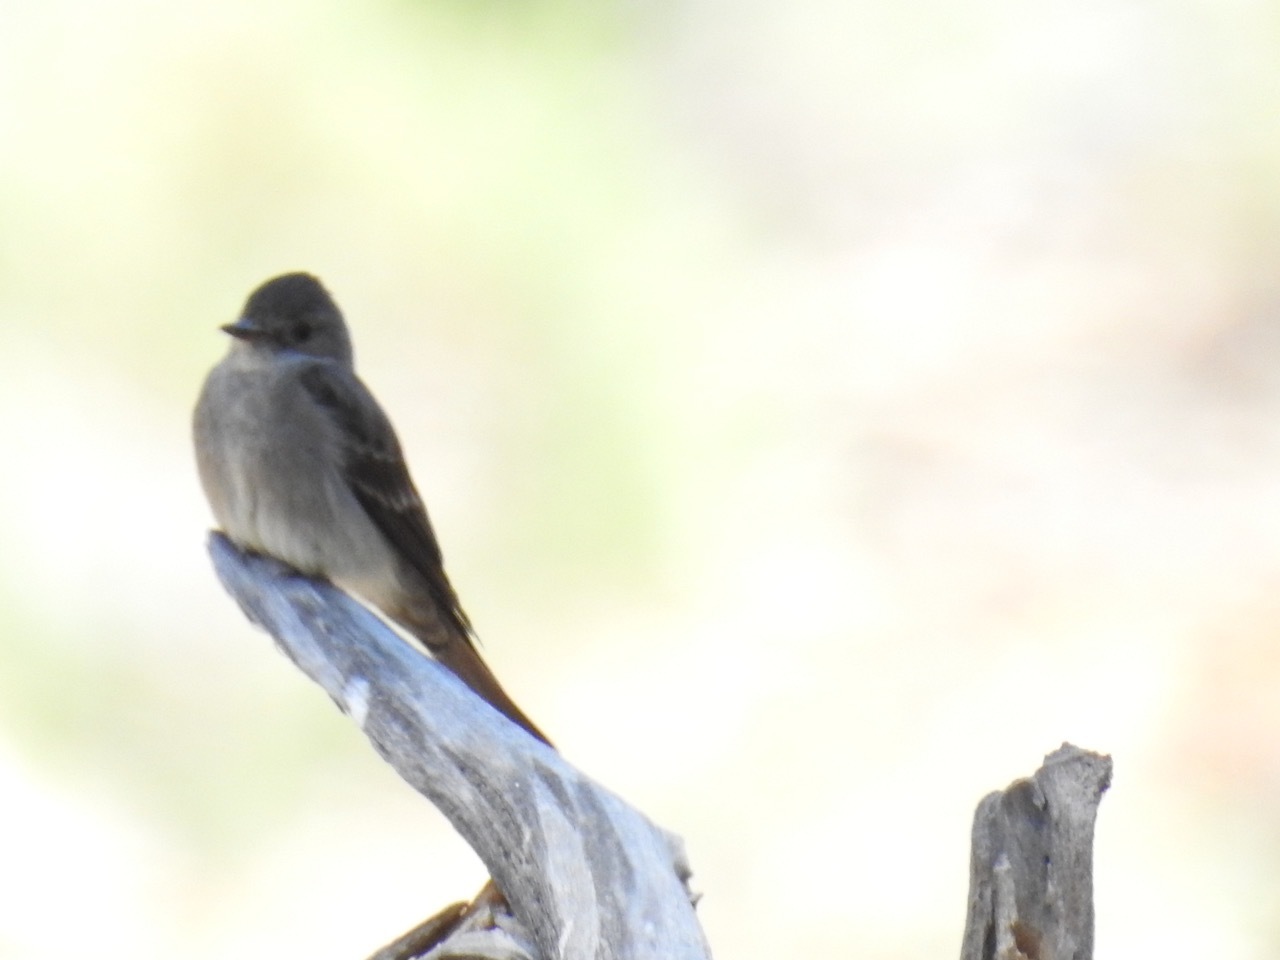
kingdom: Animalia
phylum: Chordata
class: Aves
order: Passeriformes
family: Tyrannidae
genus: Contopus
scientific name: Contopus sordidulus
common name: Western wood-pewee
